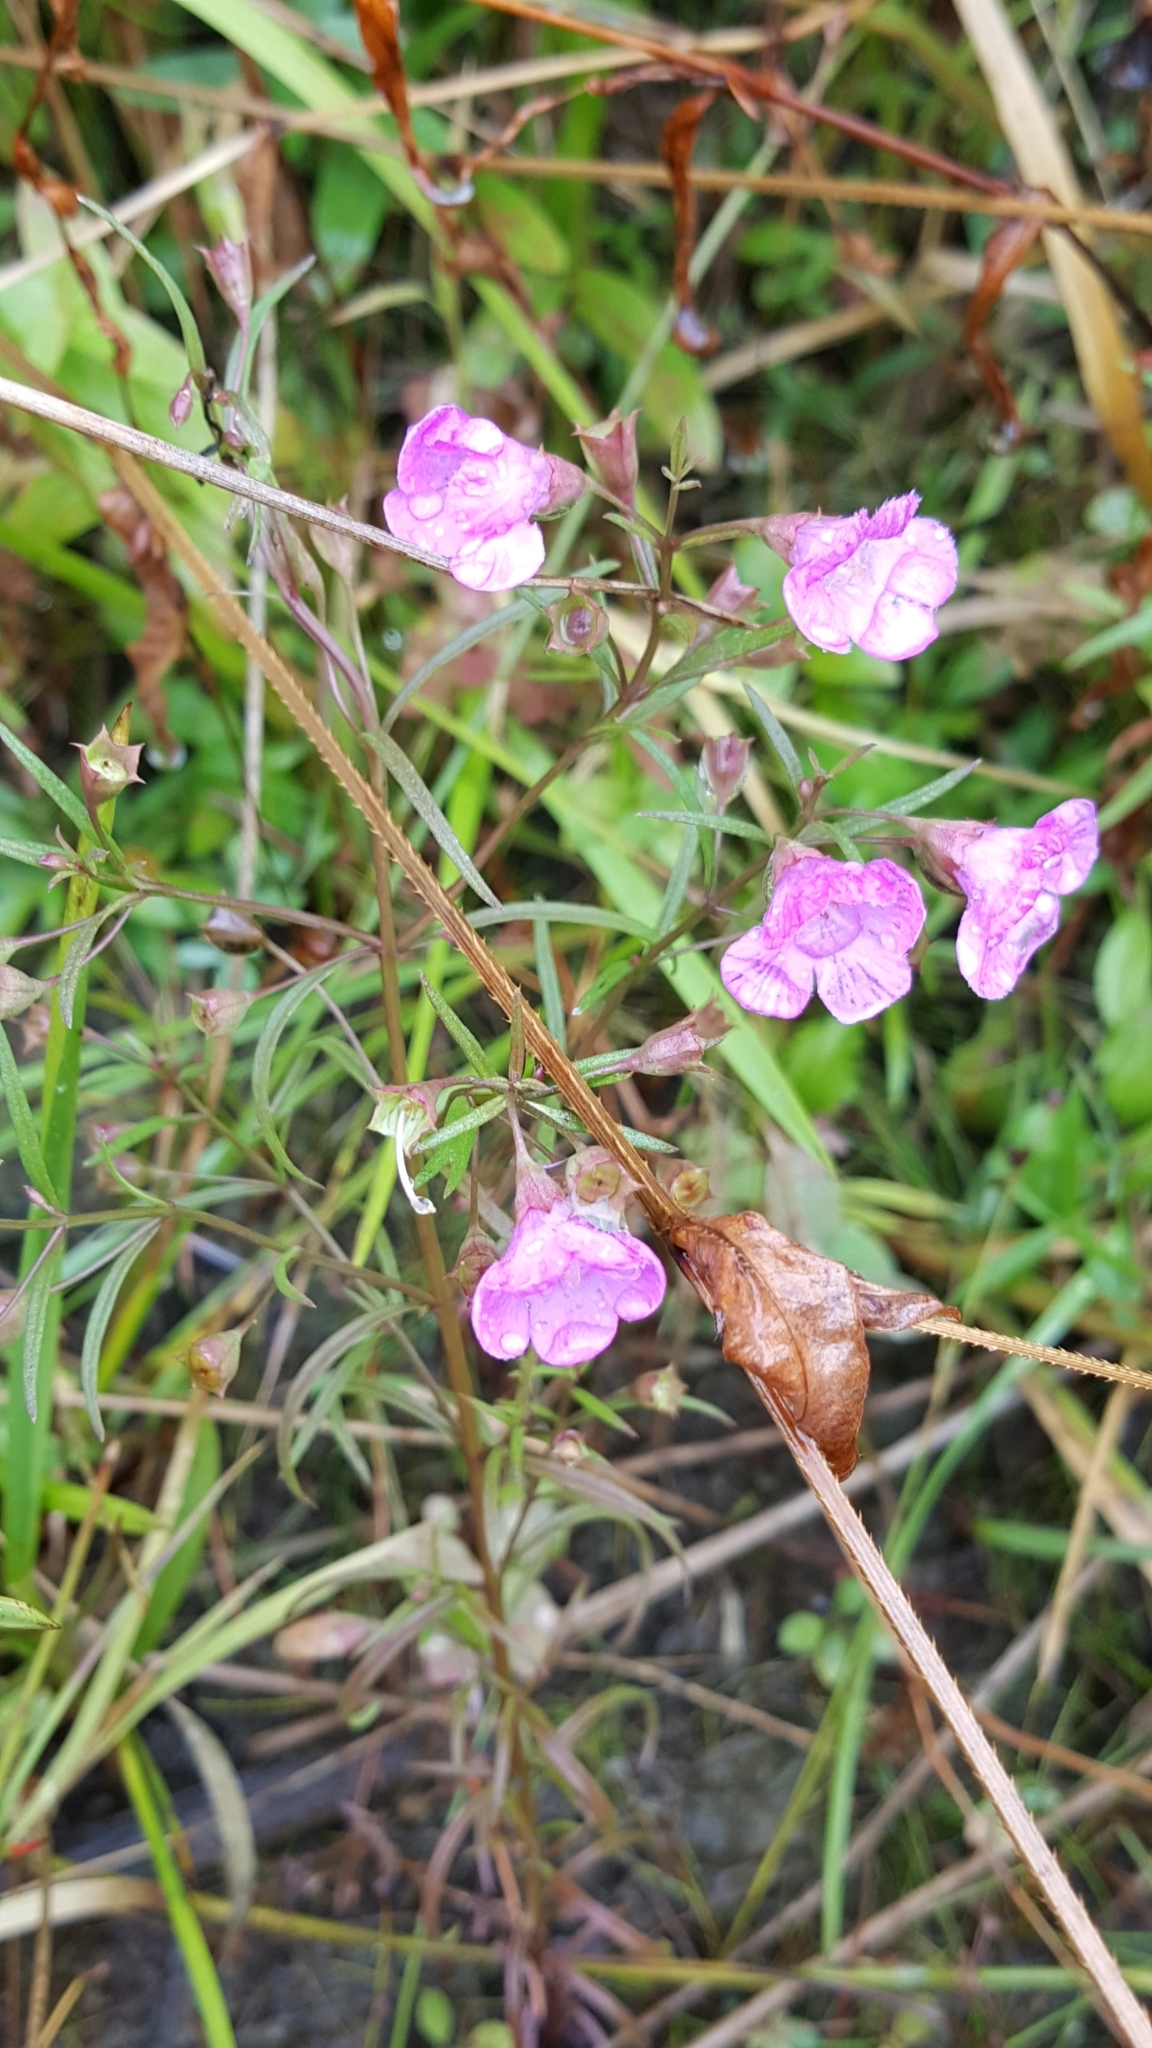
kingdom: Plantae
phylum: Tracheophyta
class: Magnoliopsida
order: Lamiales
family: Orobanchaceae
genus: Agalinis
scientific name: Agalinis tenuifolia
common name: Slender agalinis
